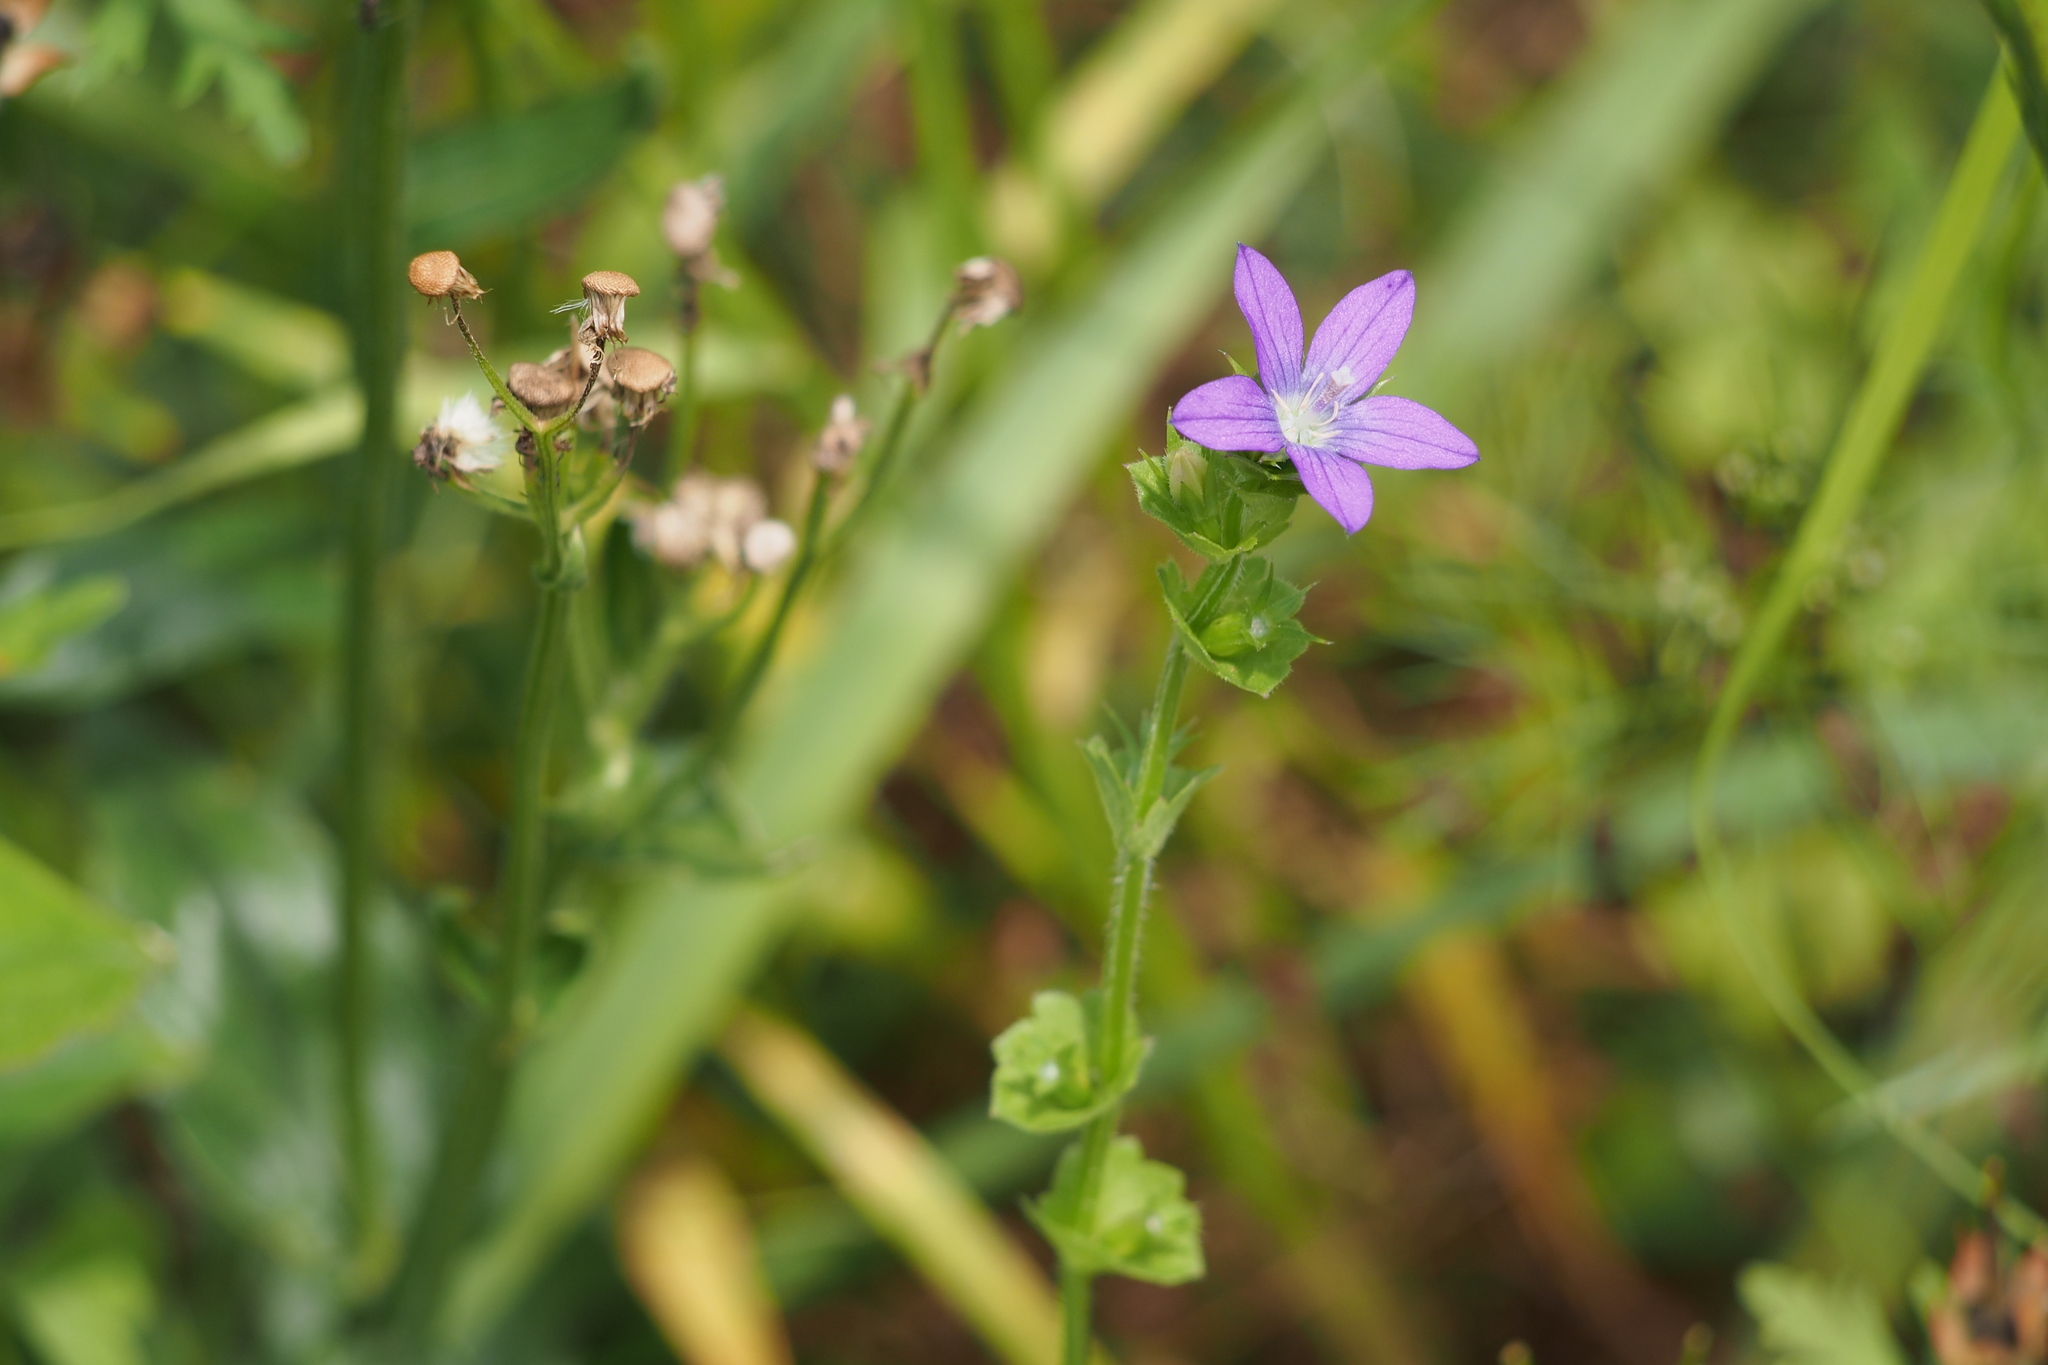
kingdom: Plantae
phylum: Tracheophyta
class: Magnoliopsida
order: Asterales
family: Campanulaceae
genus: Triodanis
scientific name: Triodanis perfoliata
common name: Clasping venus' looking-glass
